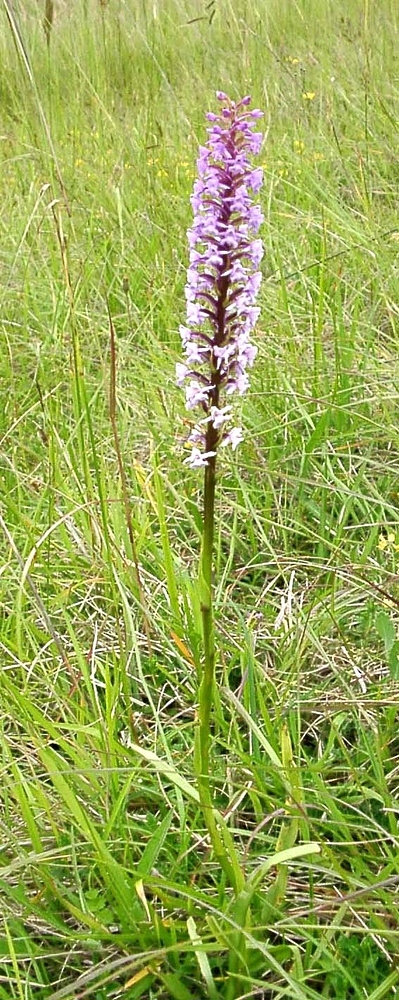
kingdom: Plantae
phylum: Tracheophyta
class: Liliopsida
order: Asparagales
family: Orchidaceae
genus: Gymnadenia
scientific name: Gymnadenia conopsea
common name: Fragrant orchid
